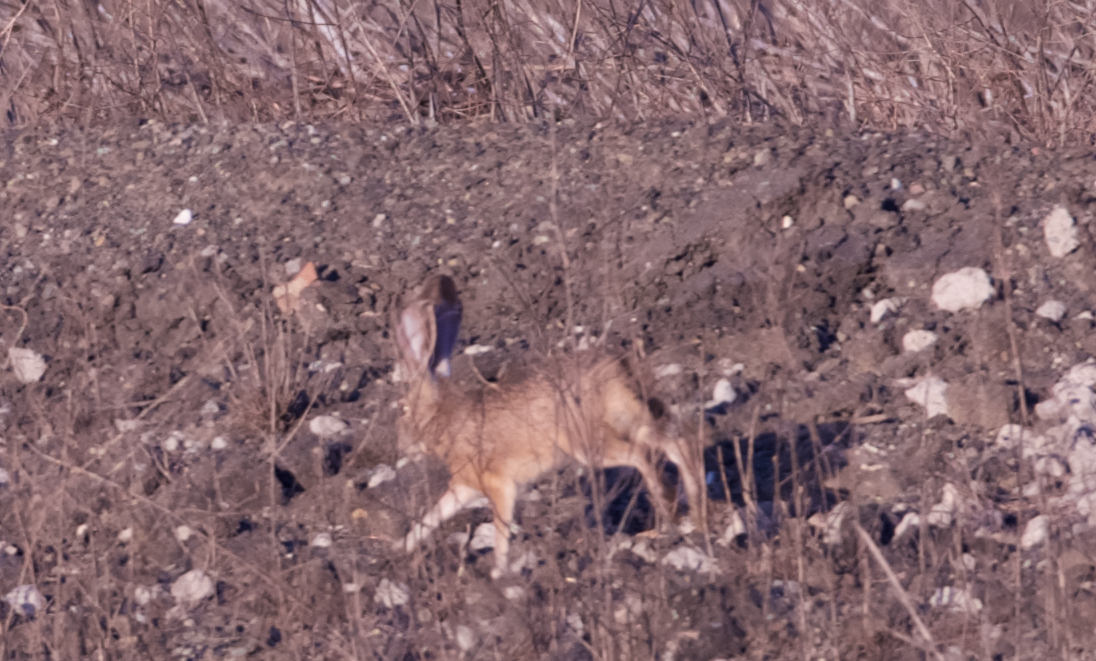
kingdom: Animalia
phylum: Chordata
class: Mammalia
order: Lagomorpha
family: Leporidae
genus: Lepus
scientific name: Lepus californicus
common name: Black-tailed jackrabbit
